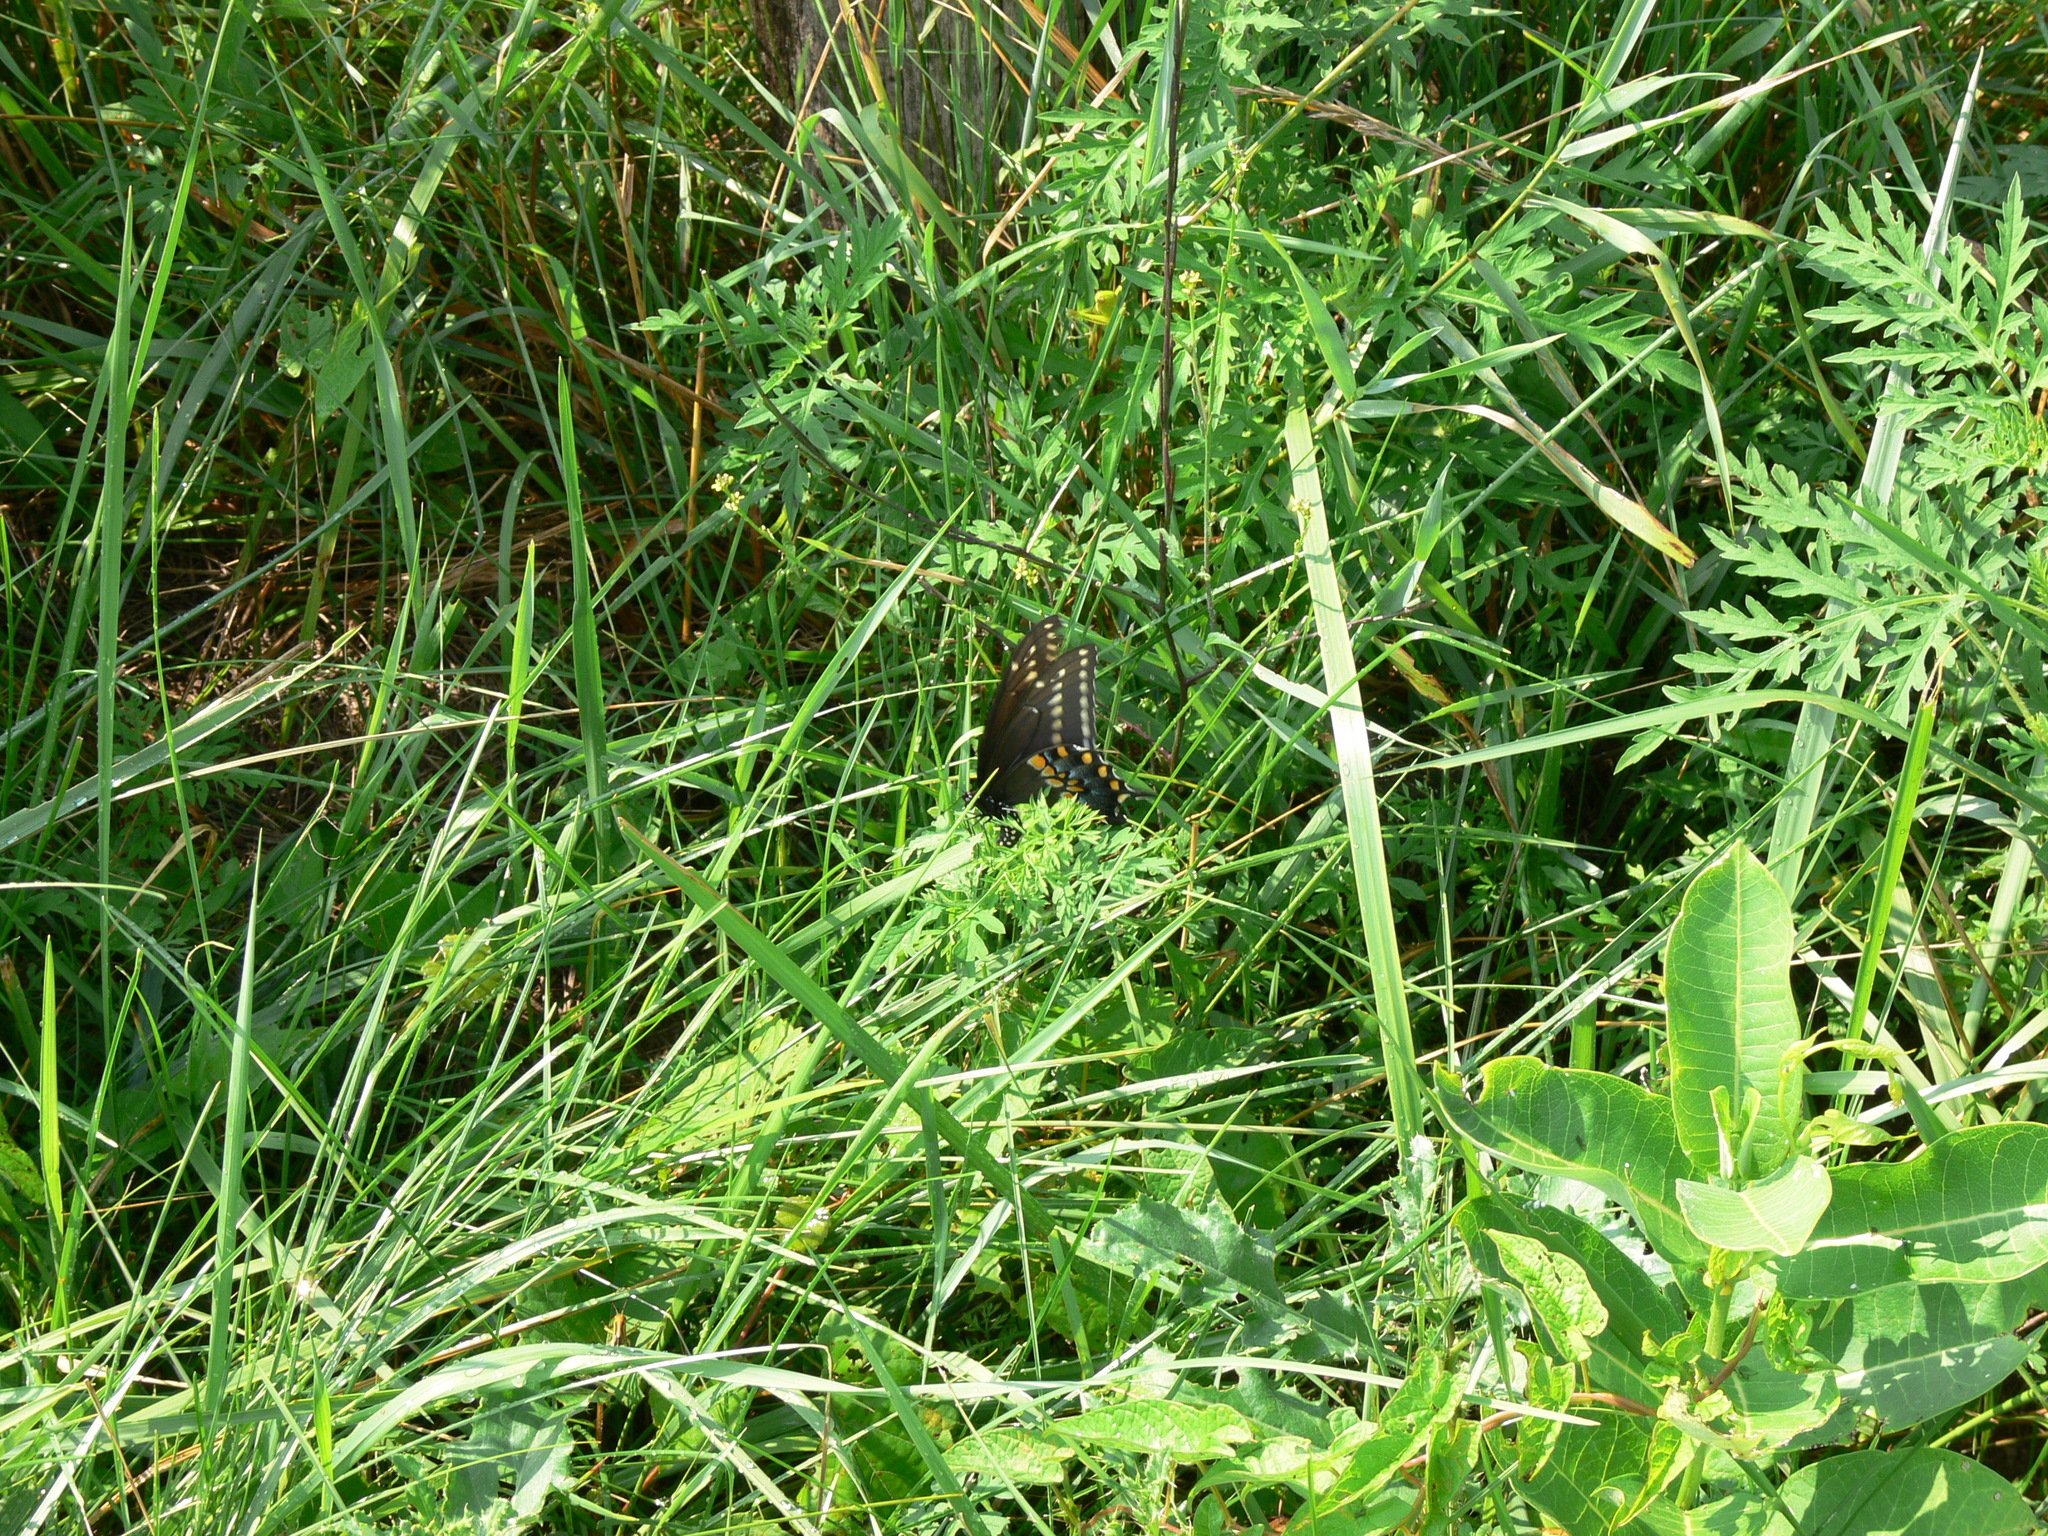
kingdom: Animalia
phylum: Arthropoda
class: Insecta
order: Lepidoptera
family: Papilionidae
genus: Papilio
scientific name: Papilio polyxenes
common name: Black swallowtail
